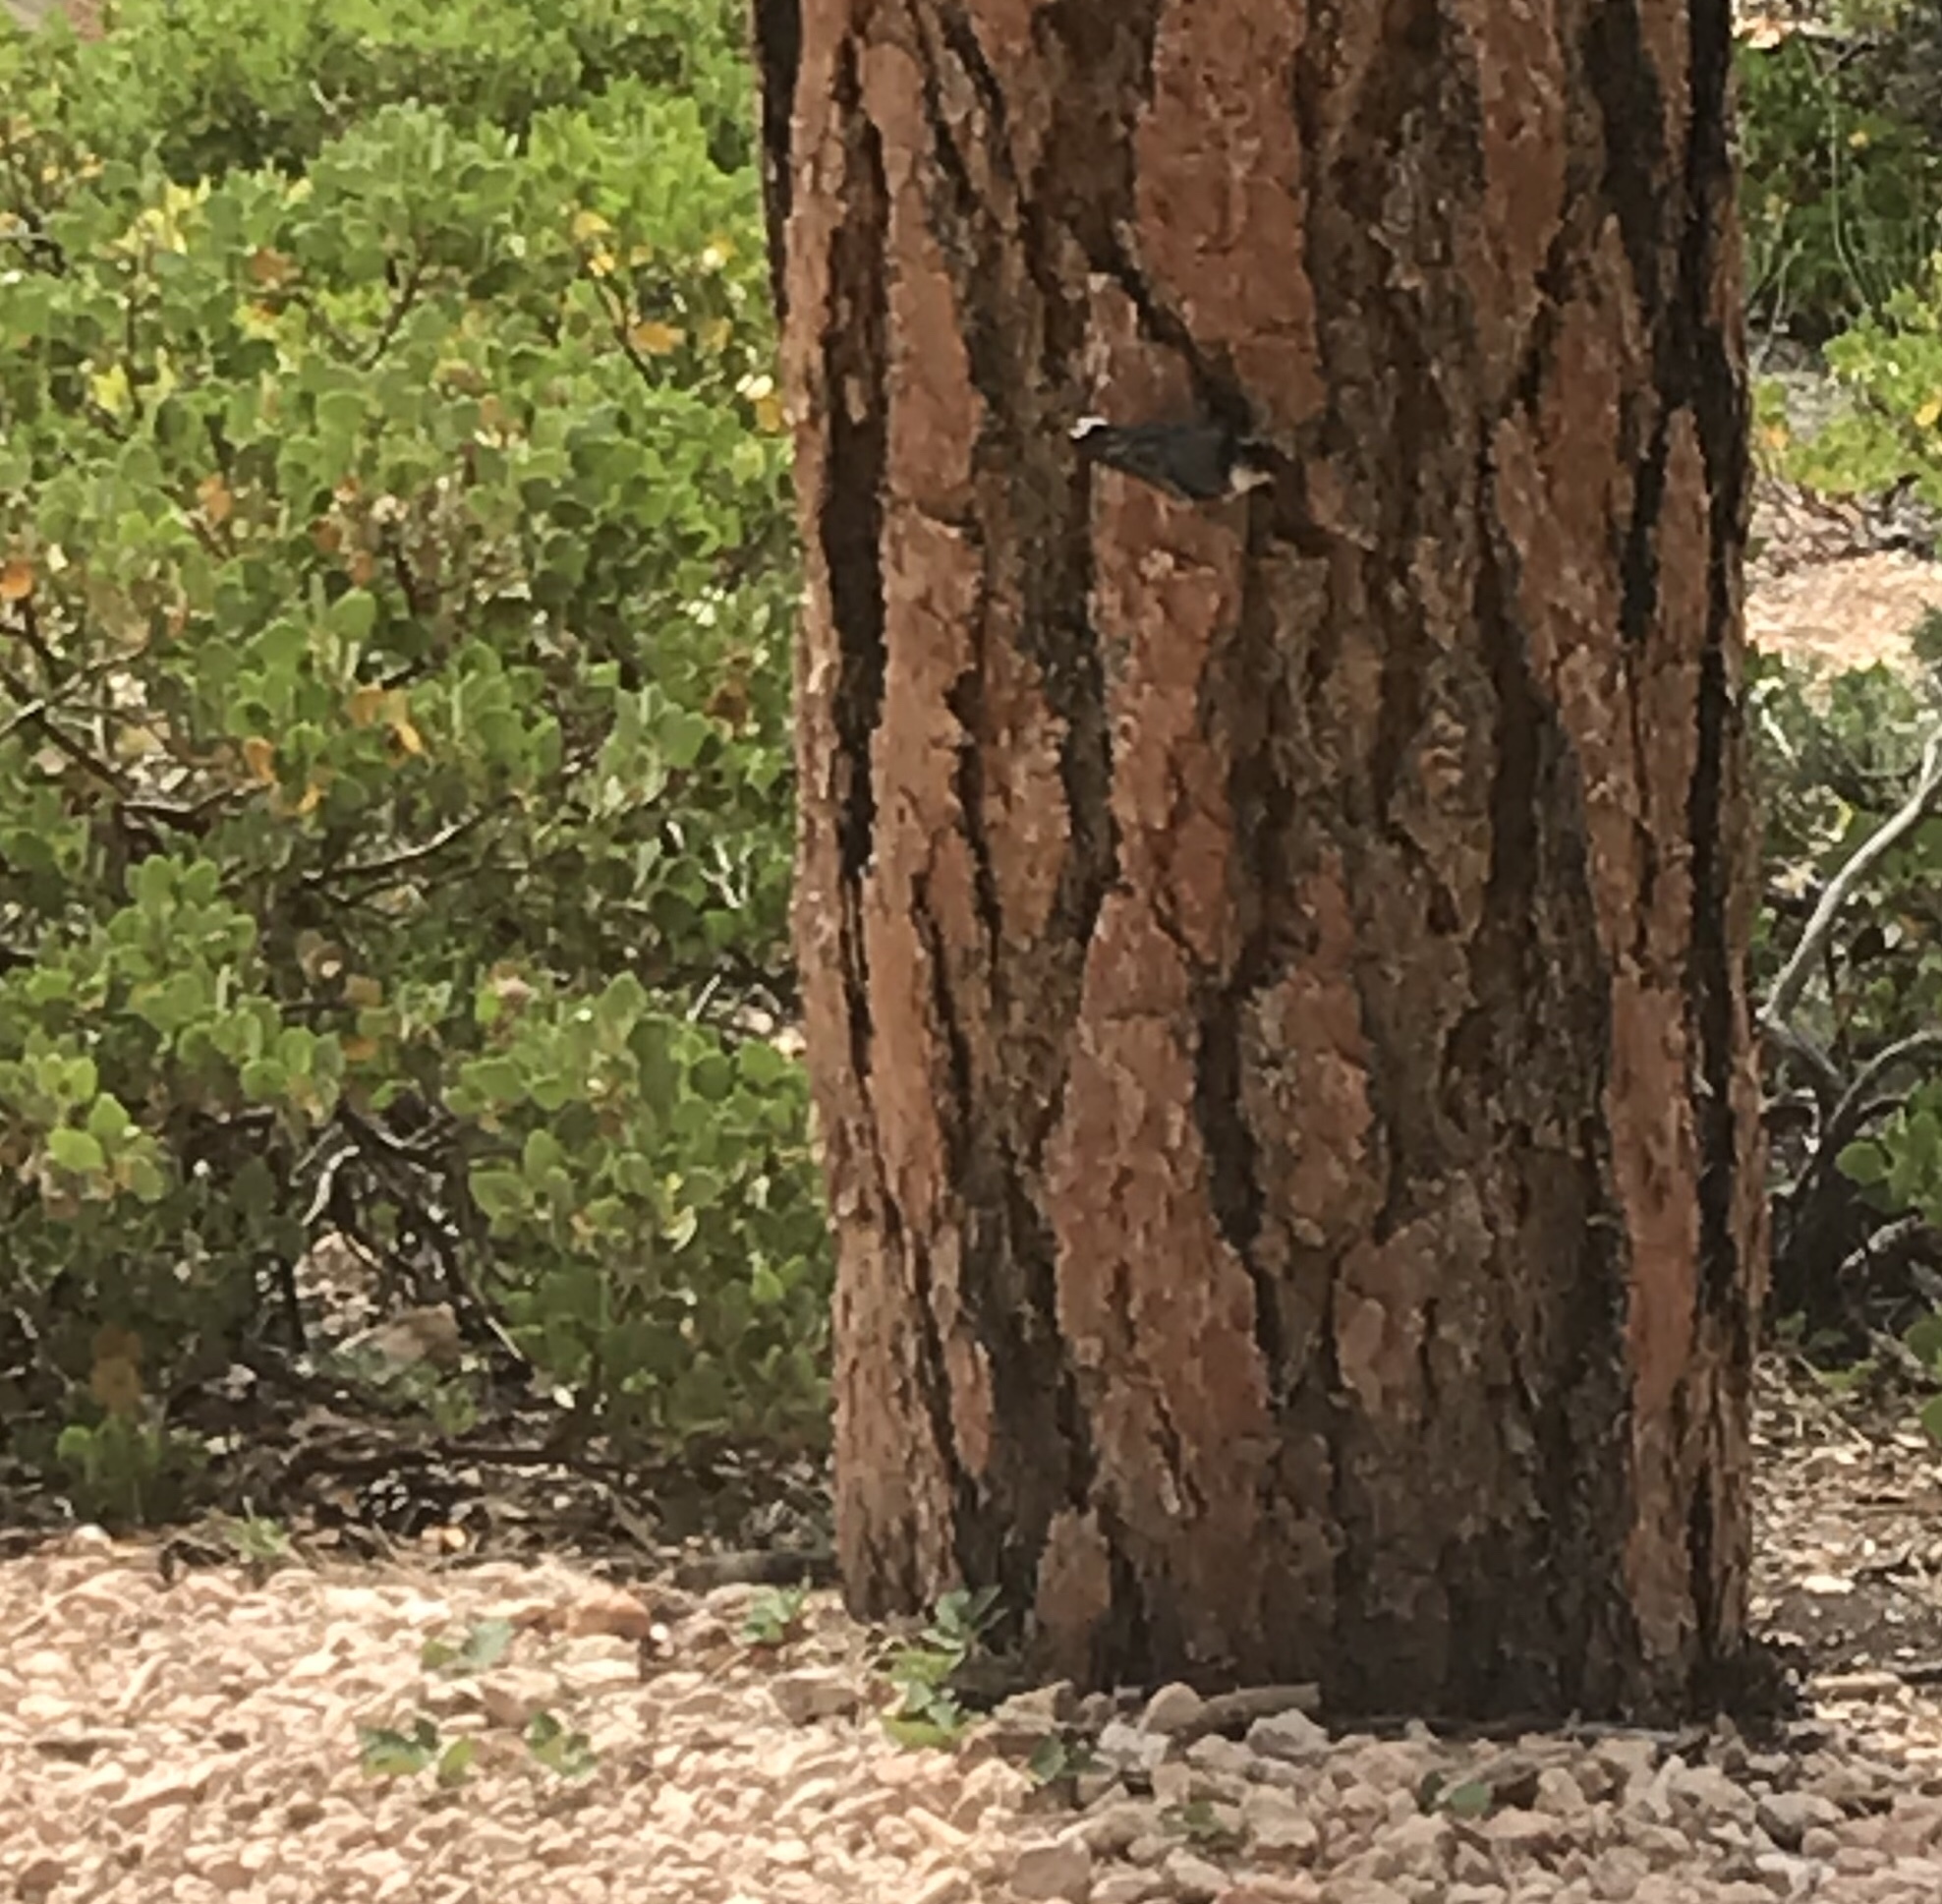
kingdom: Animalia
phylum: Chordata
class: Aves
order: Passeriformes
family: Sittidae
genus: Sitta
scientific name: Sitta carolinensis
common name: White-breasted nuthatch
